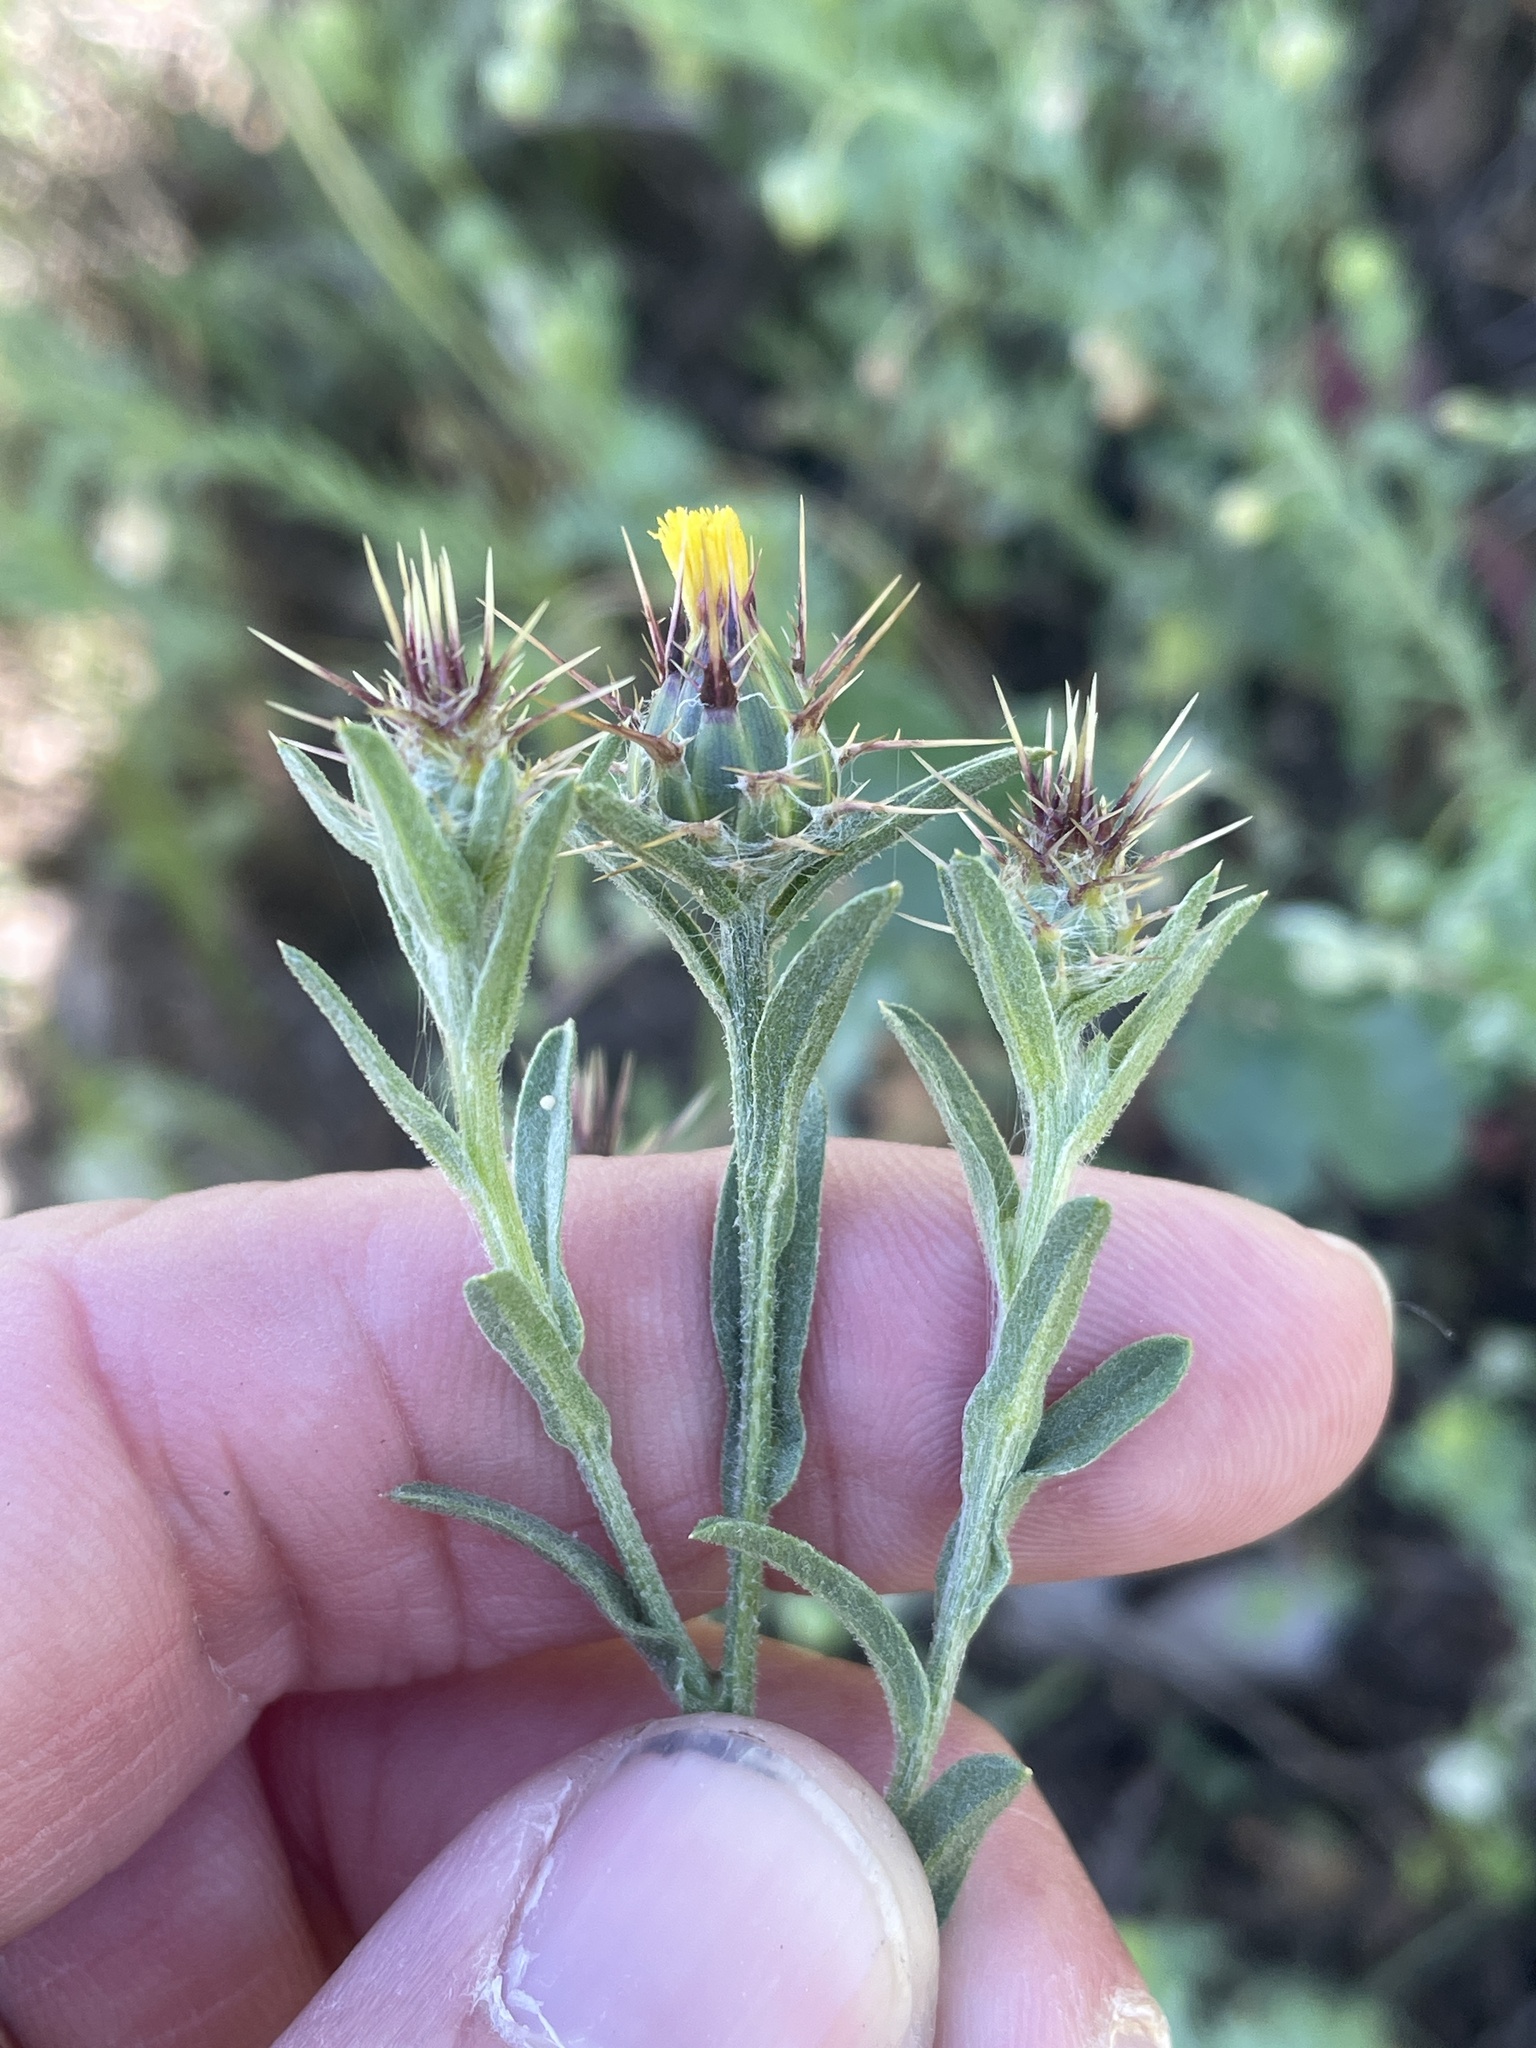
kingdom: Plantae
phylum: Tracheophyta
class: Magnoliopsida
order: Asterales
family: Asteraceae
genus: Centaurea
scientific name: Centaurea melitensis
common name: Maltese star-thistle
